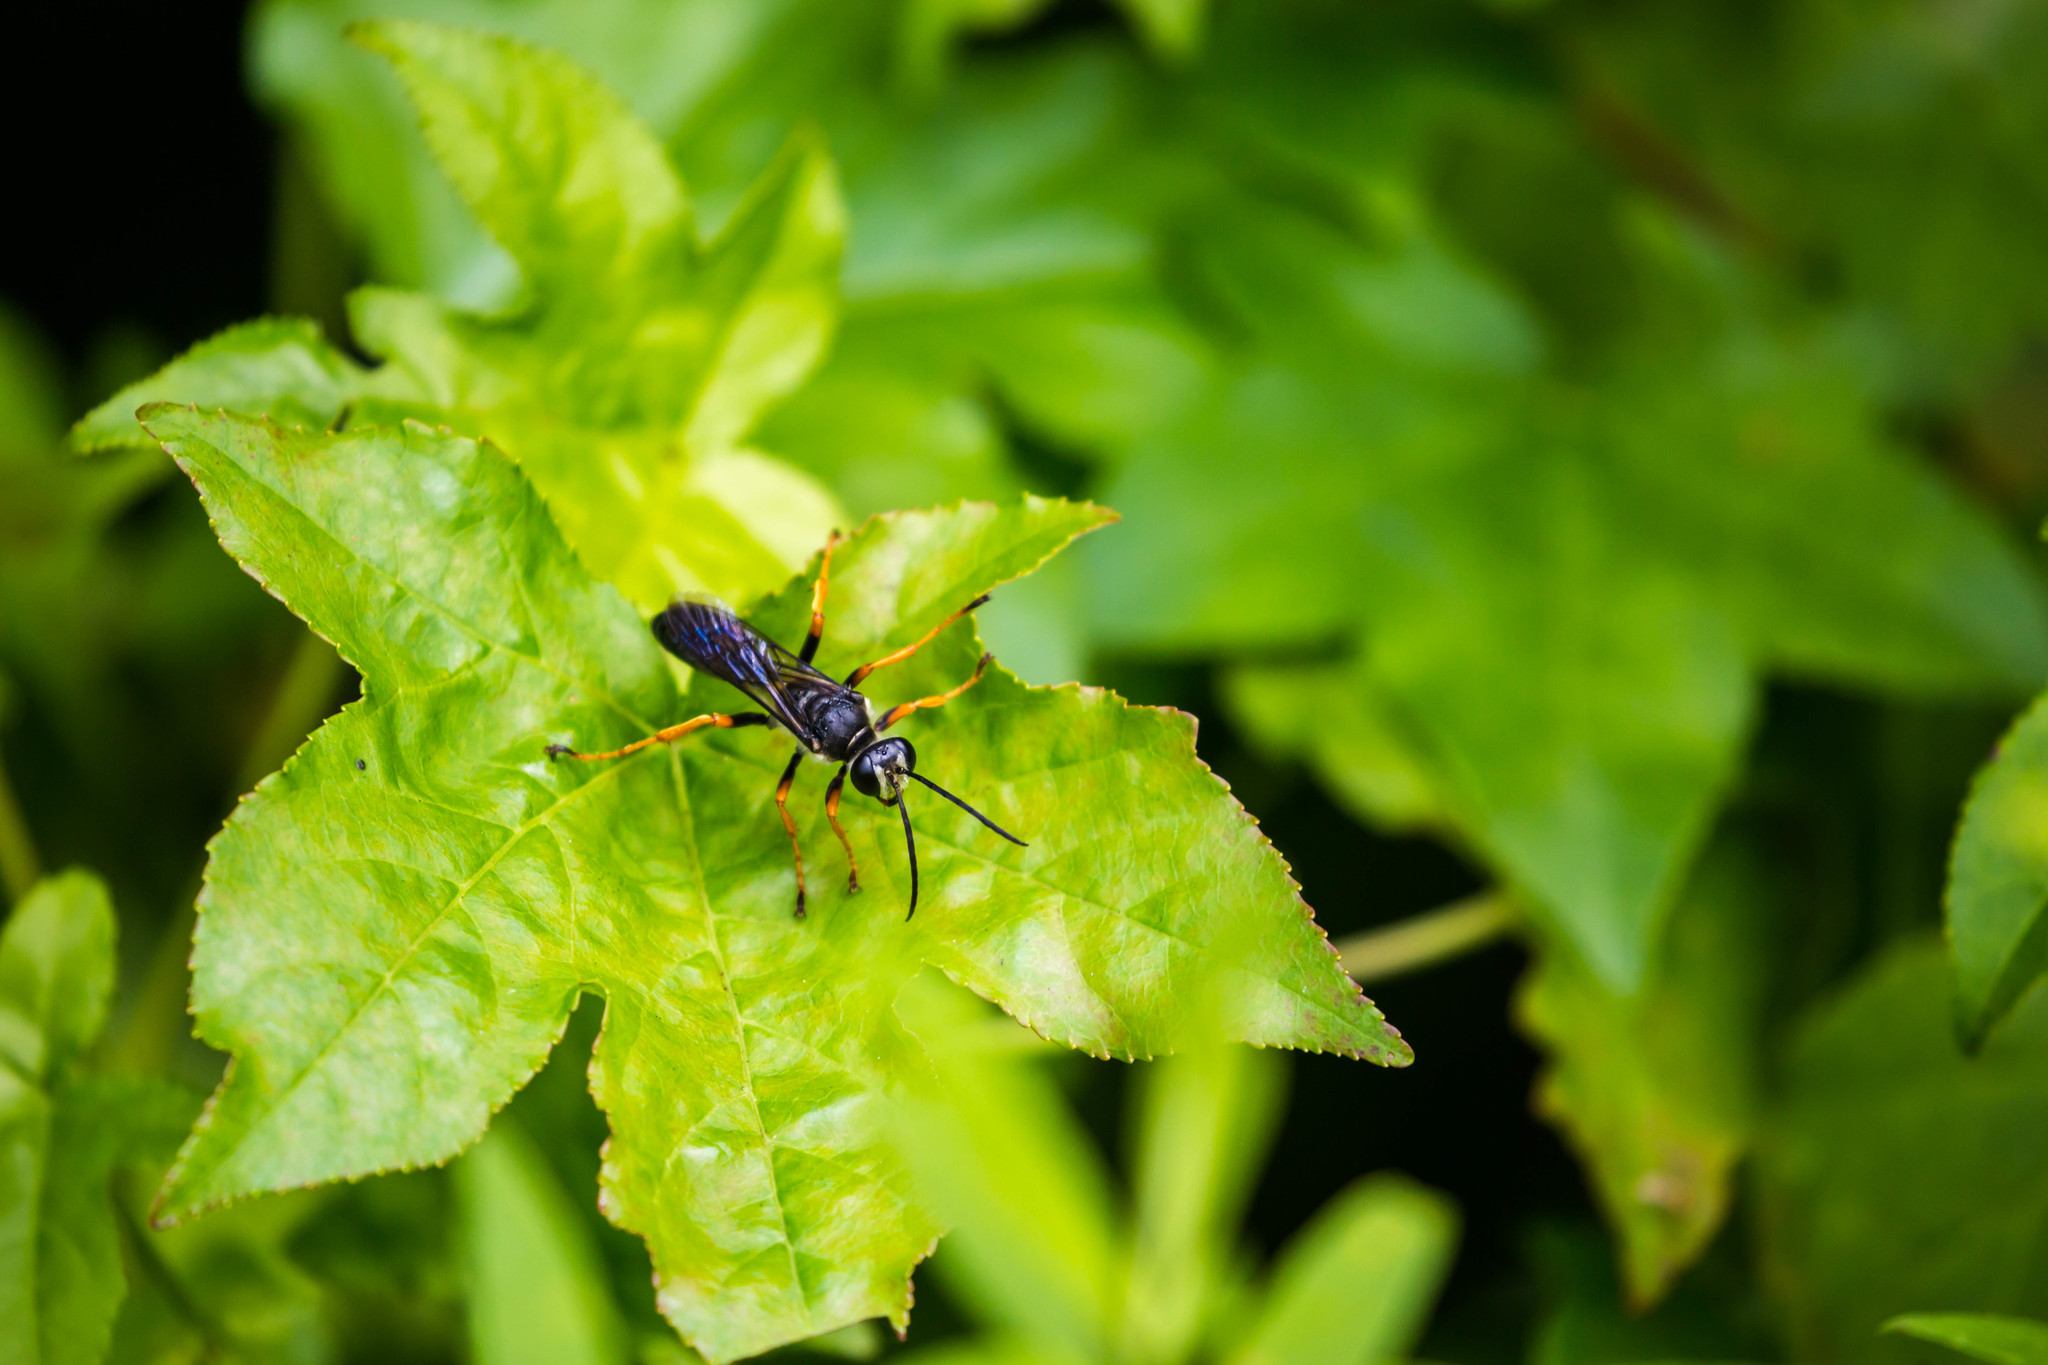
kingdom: Animalia
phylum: Arthropoda
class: Insecta
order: Hymenoptera
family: Sphecidae
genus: Sphex
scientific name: Sphex nudus
